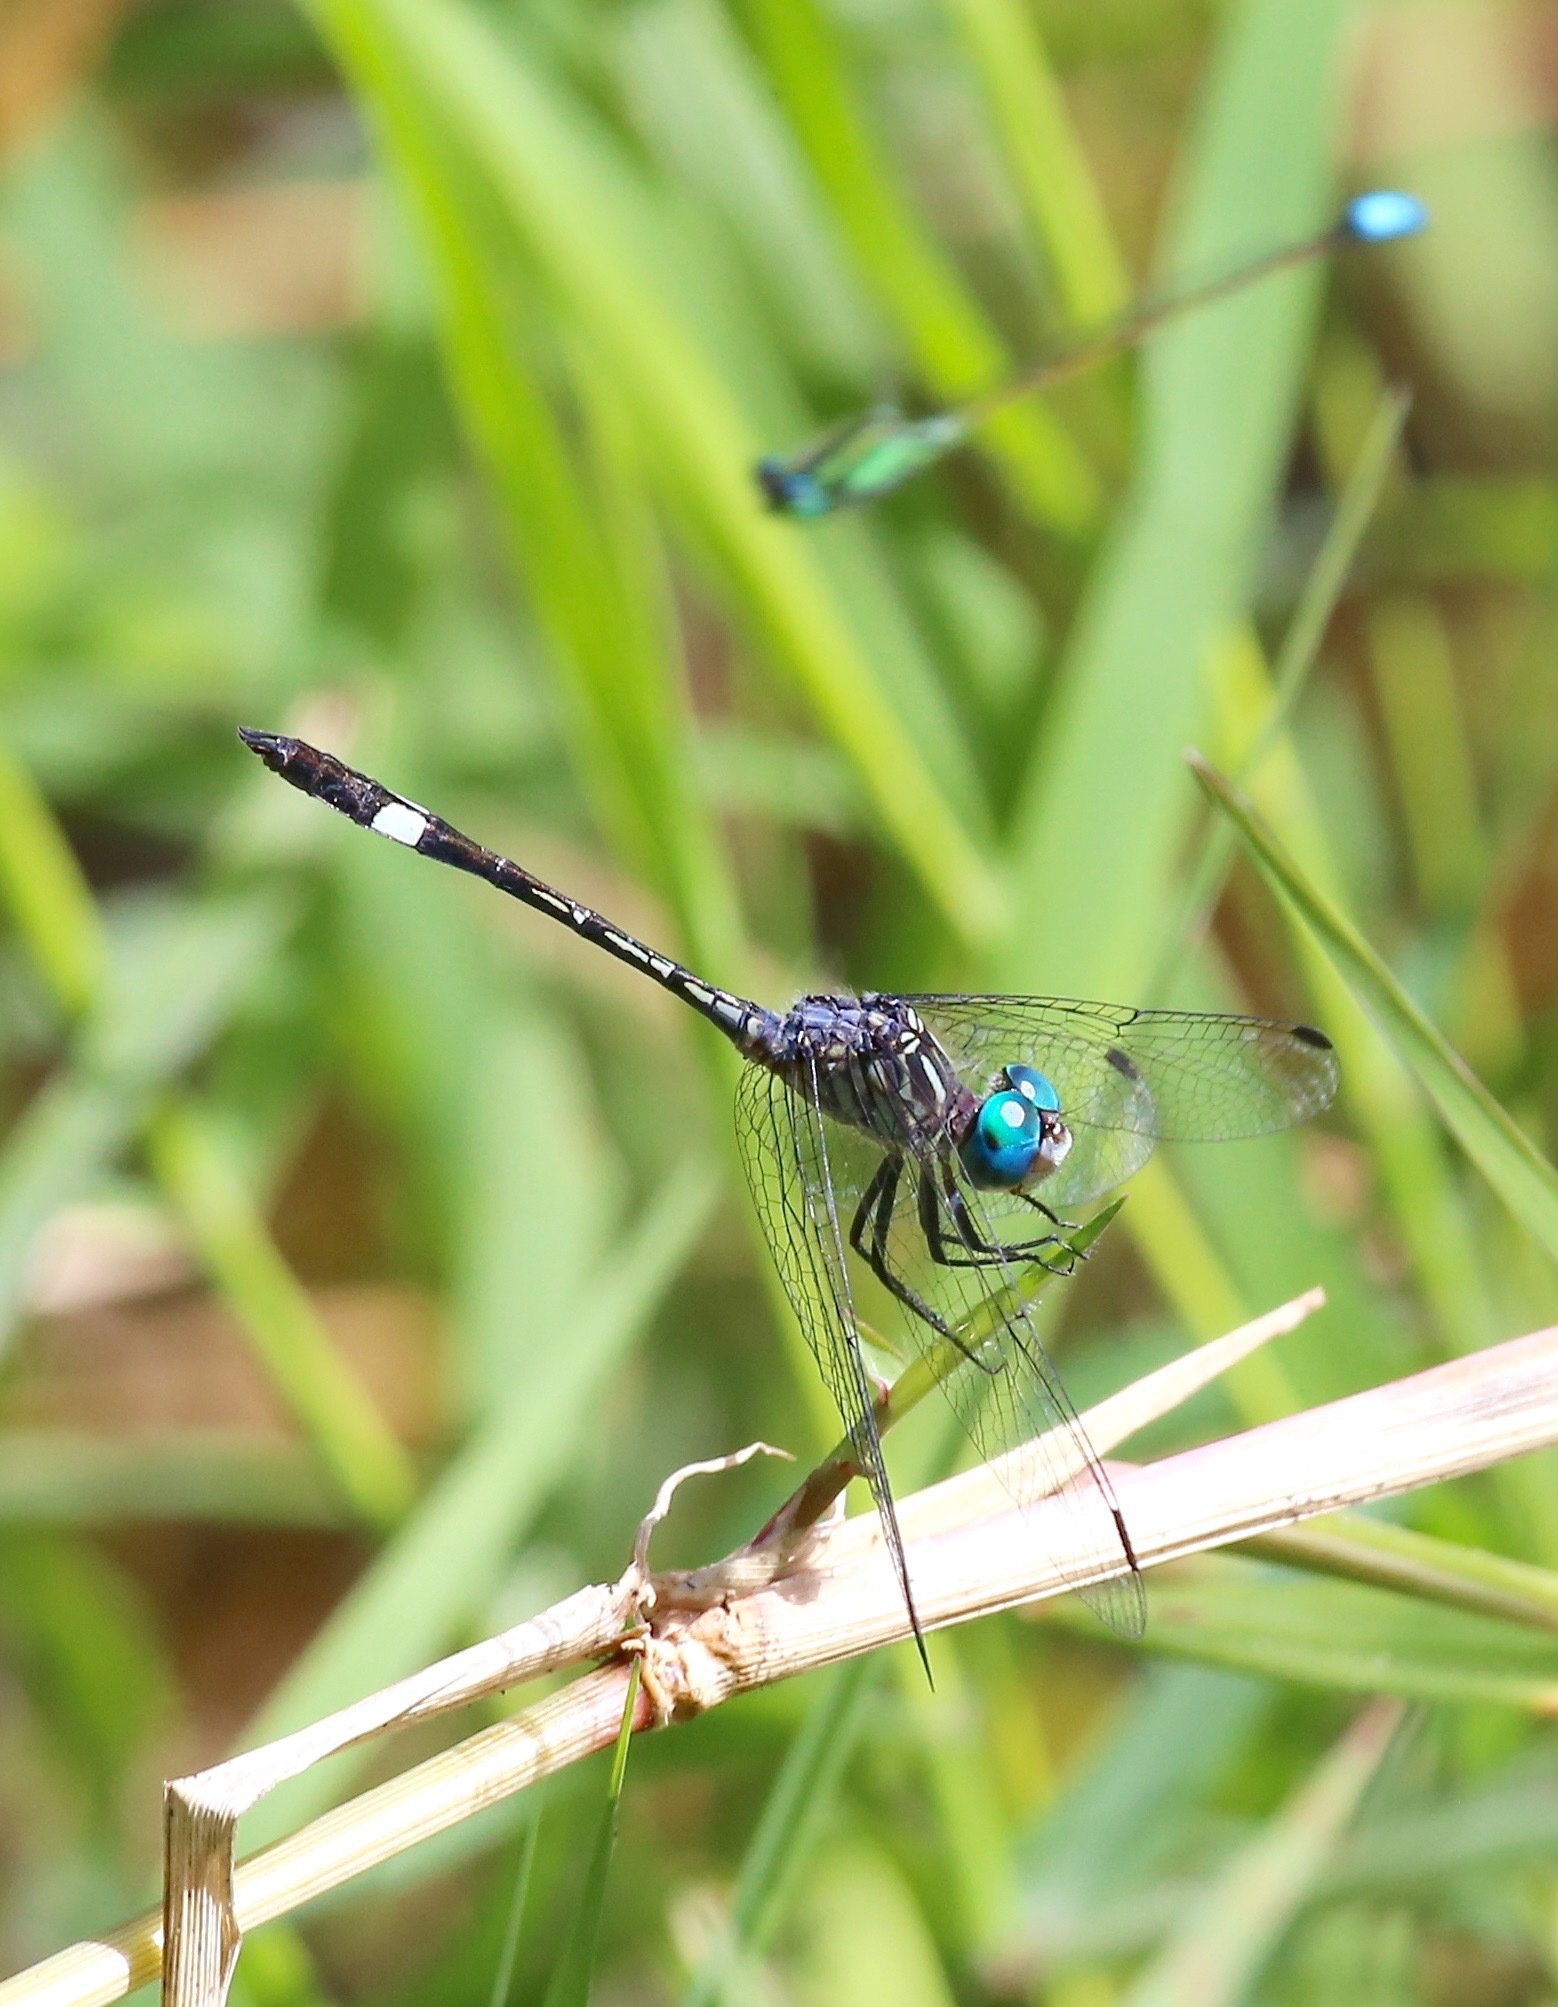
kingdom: Animalia
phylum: Arthropoda
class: Insecta
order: Odonata
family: Libellulidae
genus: Micrathyria
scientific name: Micrathyria ocellata
